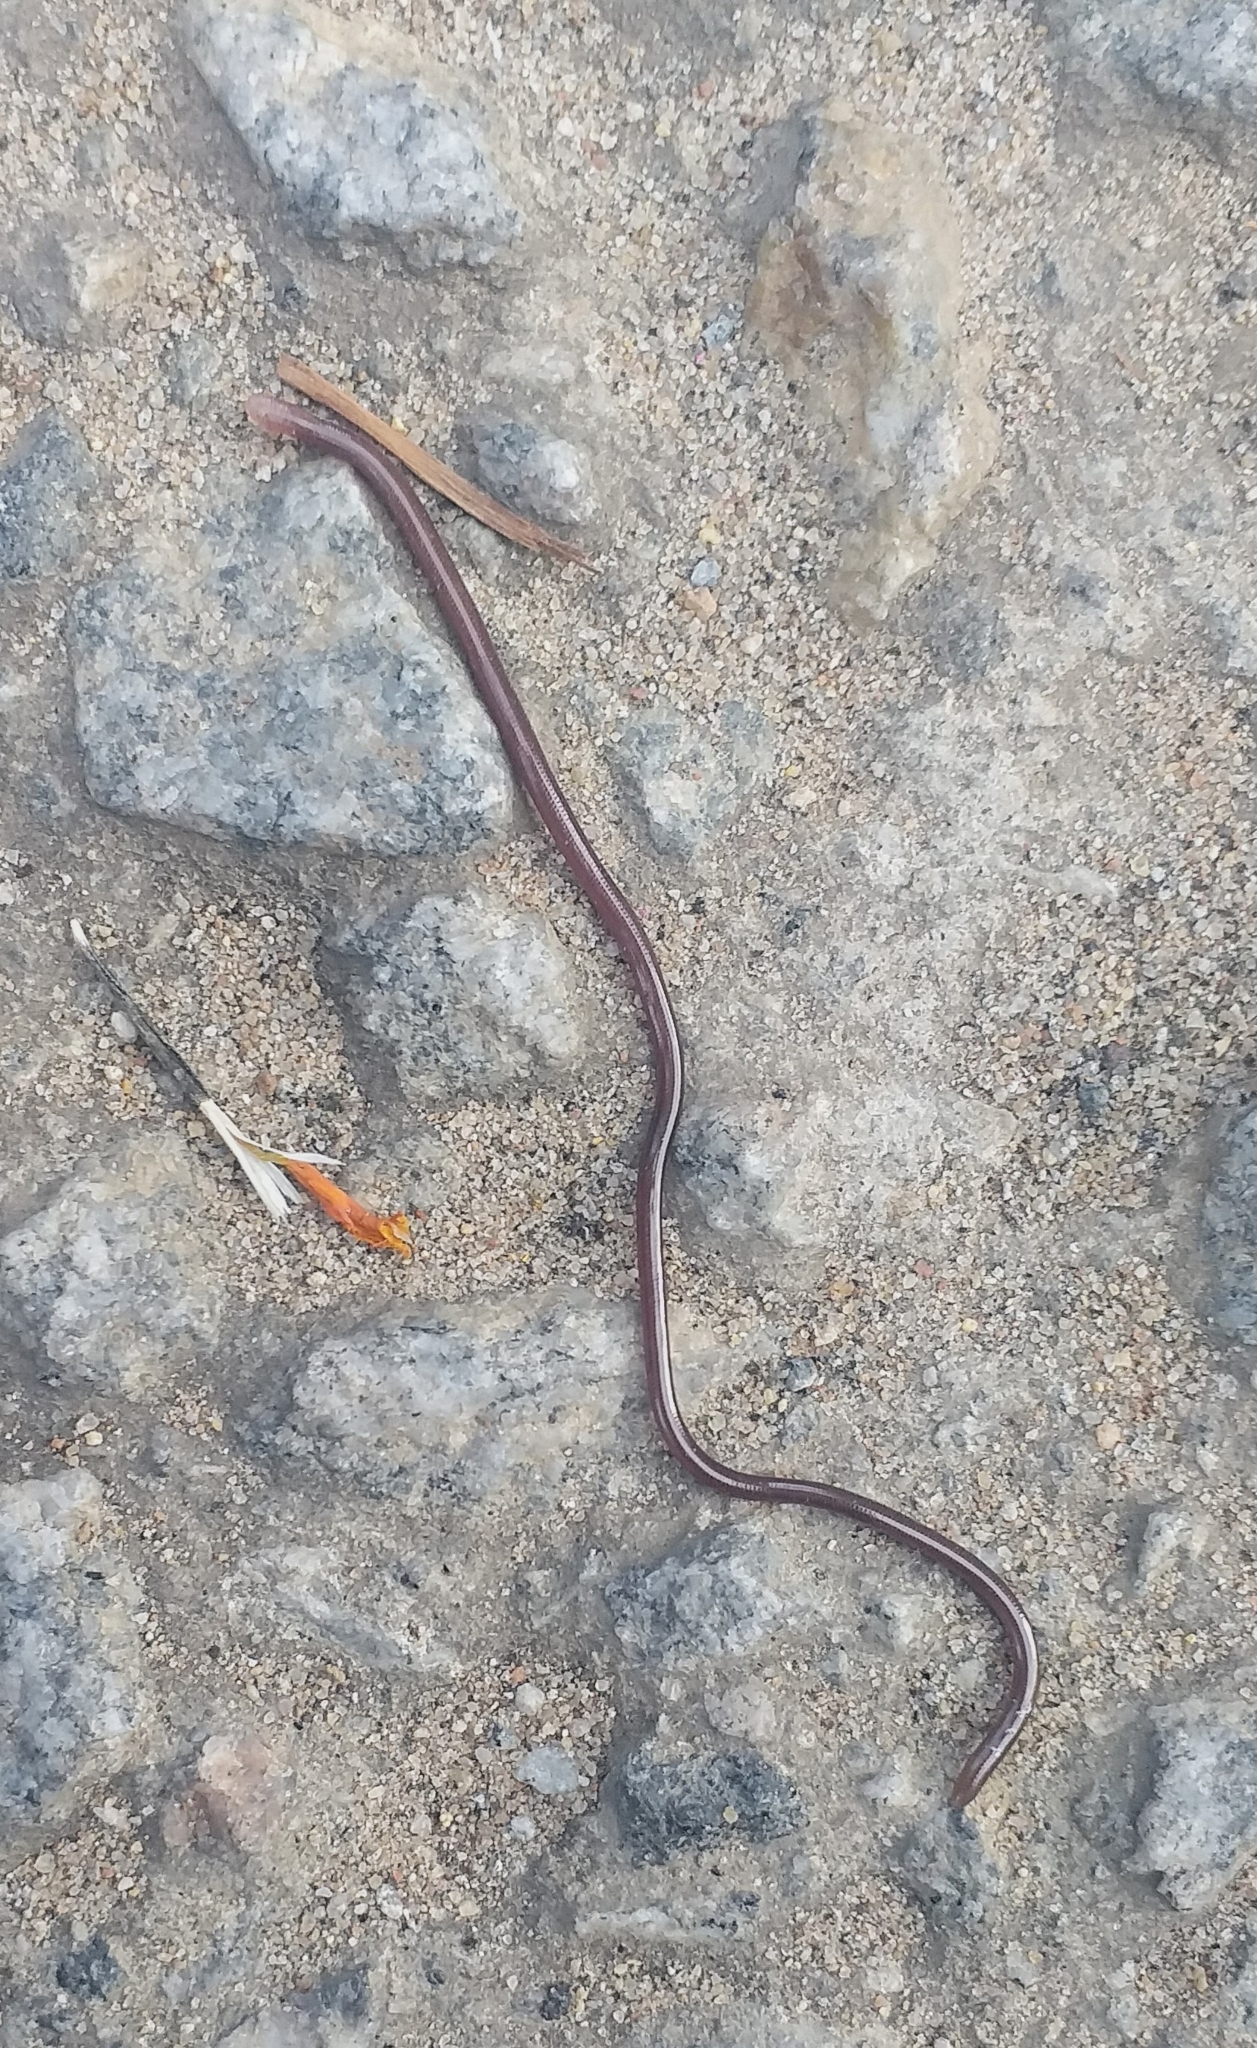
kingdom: Animalia
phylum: Chordata
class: Squamata
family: Typhlopidae
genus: Indotyphlops
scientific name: Indotyphlops braminus
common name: Brahminy blindsnake
